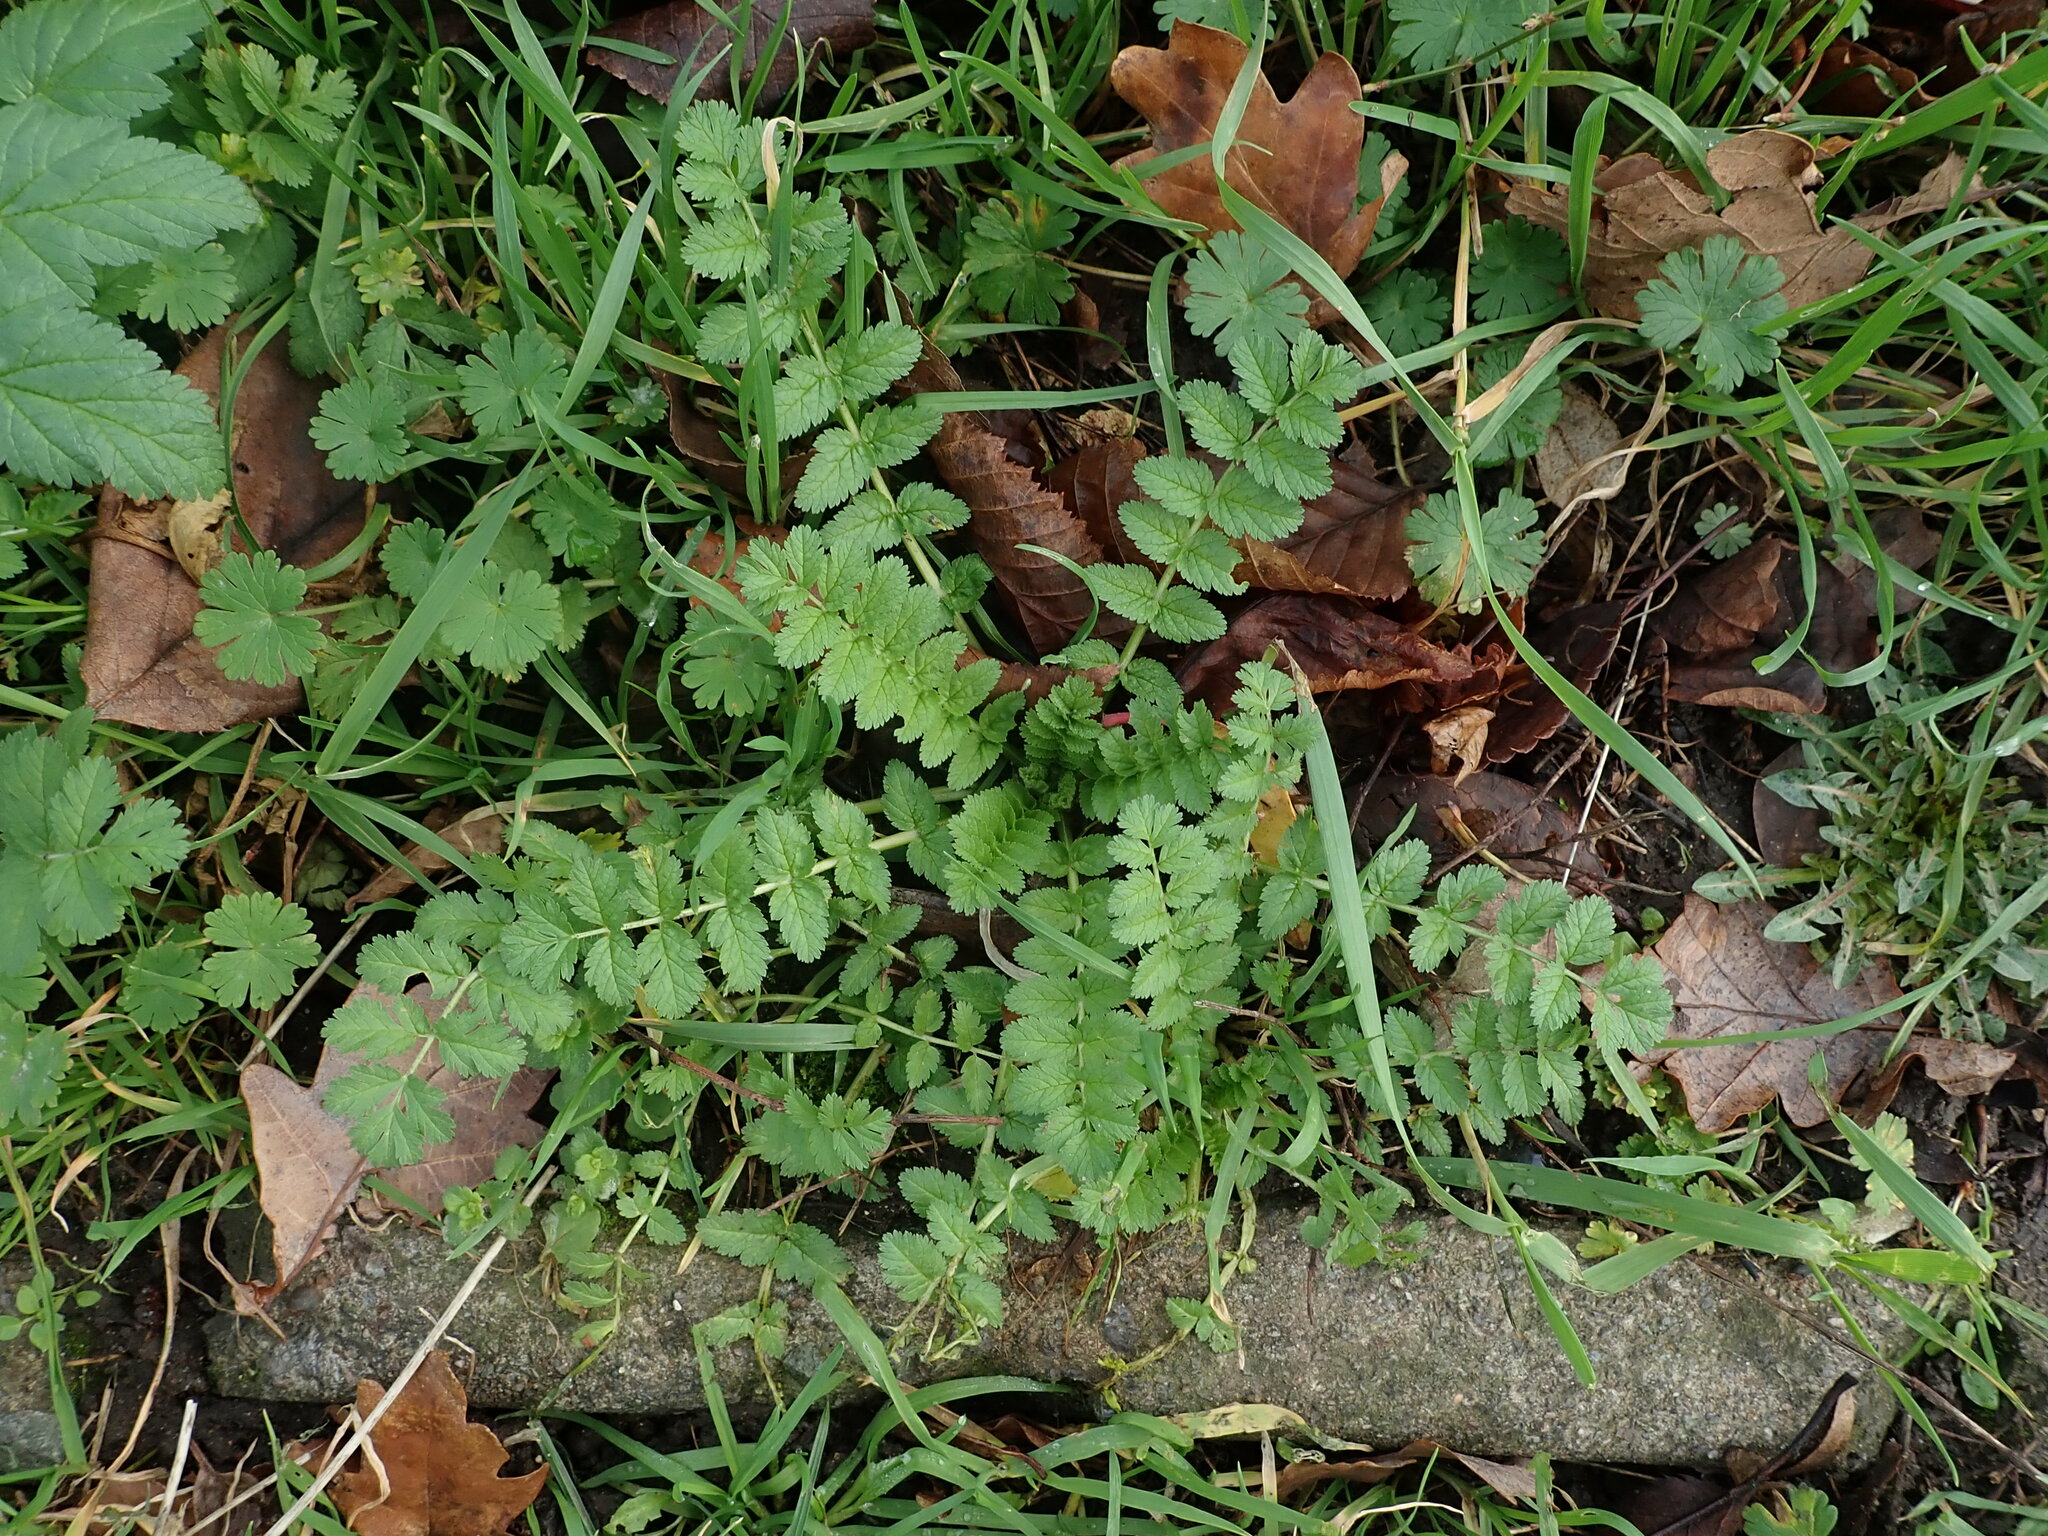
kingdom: Plantae
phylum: Tracheophyta
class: Magnoliopsida
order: Geraniales
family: Geraniaceae
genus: Erodium
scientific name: Erodium moschatum
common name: Musk stork's-bill
